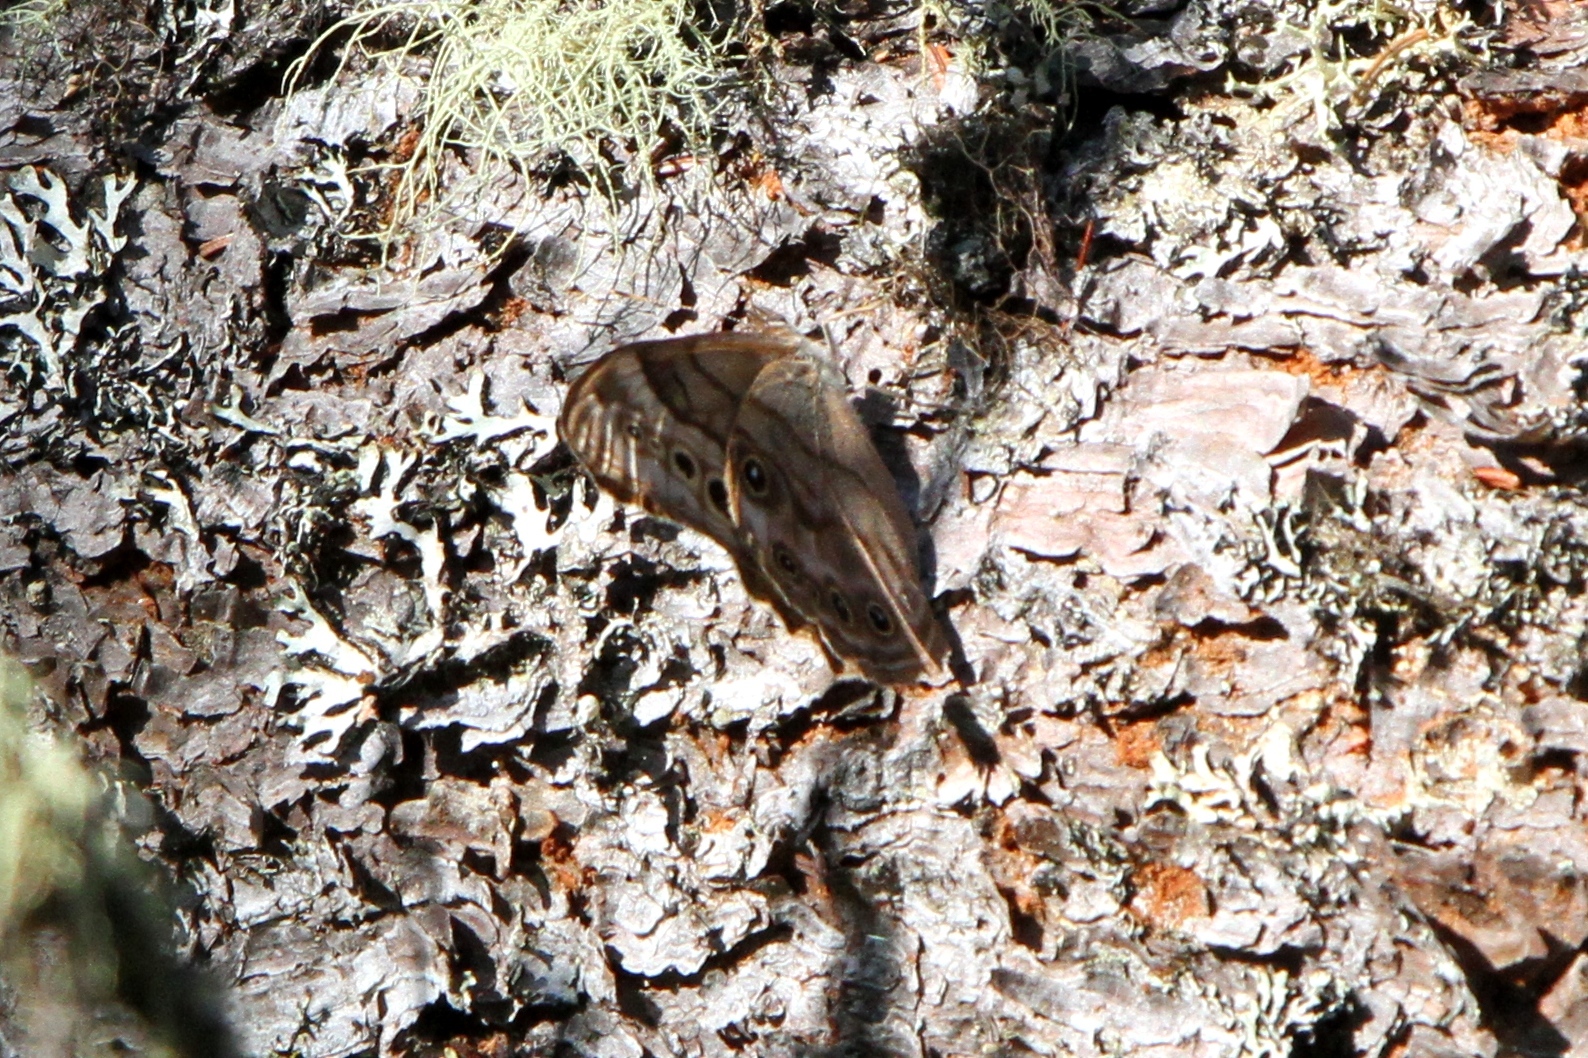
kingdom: Animalia
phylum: Arthropoda
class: Insecta
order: Lepidoptera
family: Nymphalidae
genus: Lethe
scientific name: Lethe anthedon
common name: Northern pearly-eye
